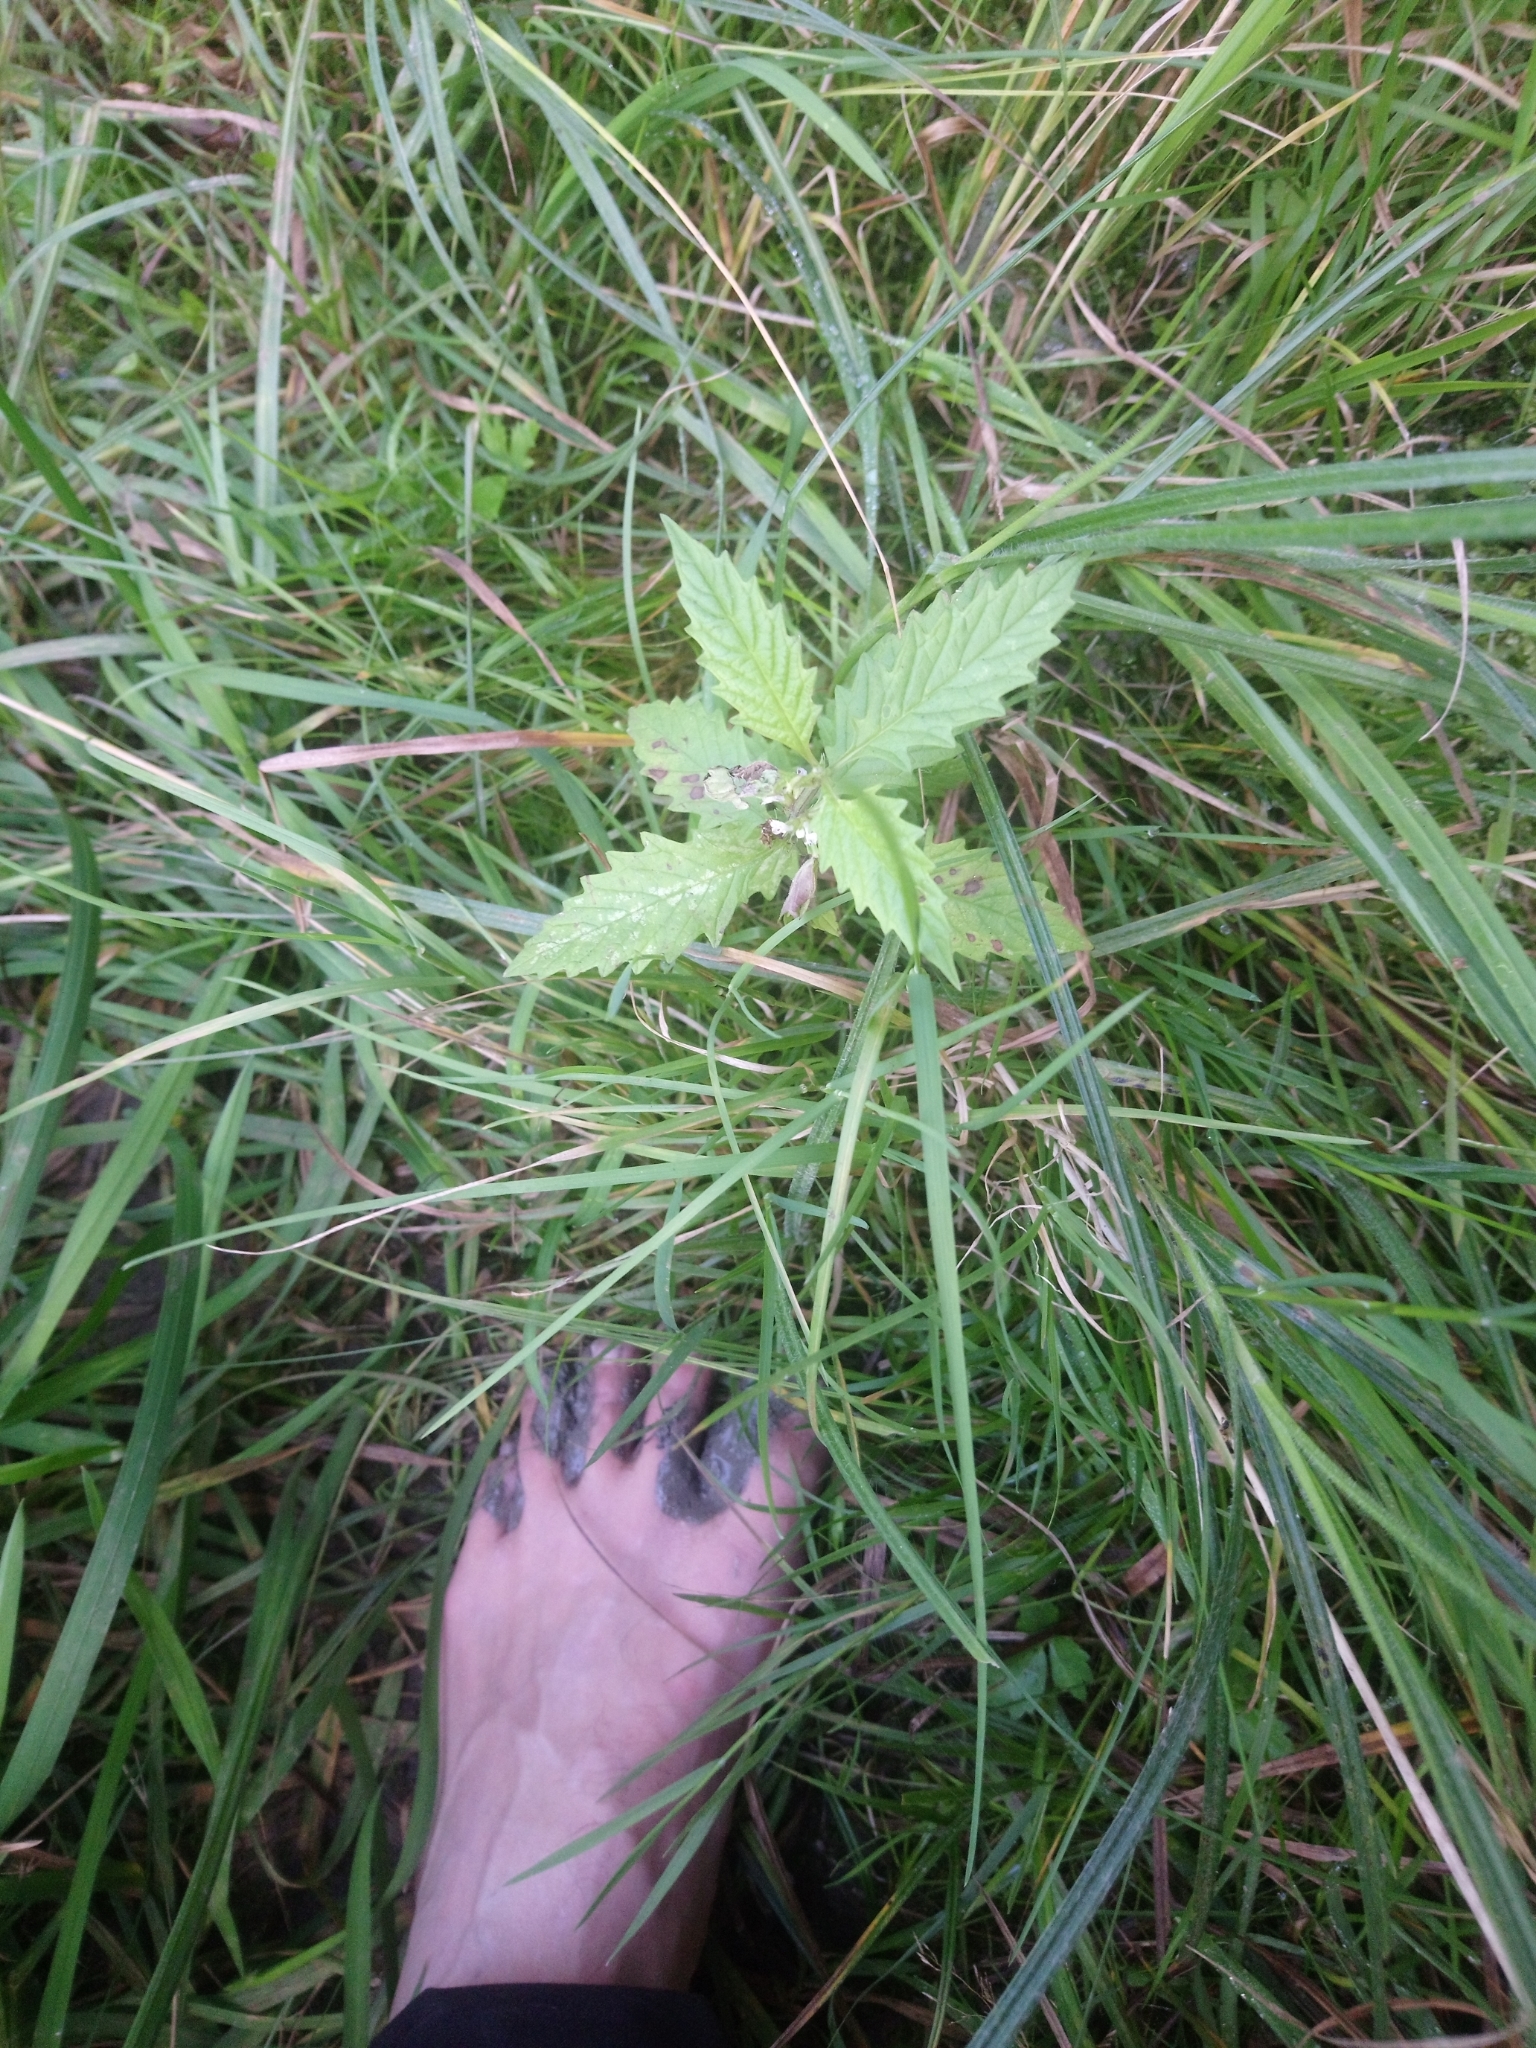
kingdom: Plantae
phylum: Tracheophyta
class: Magnoliopsida
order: Lamiales
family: Lamiaceae
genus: Lycopus
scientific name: Lycopus europaeus
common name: European bugleweed
